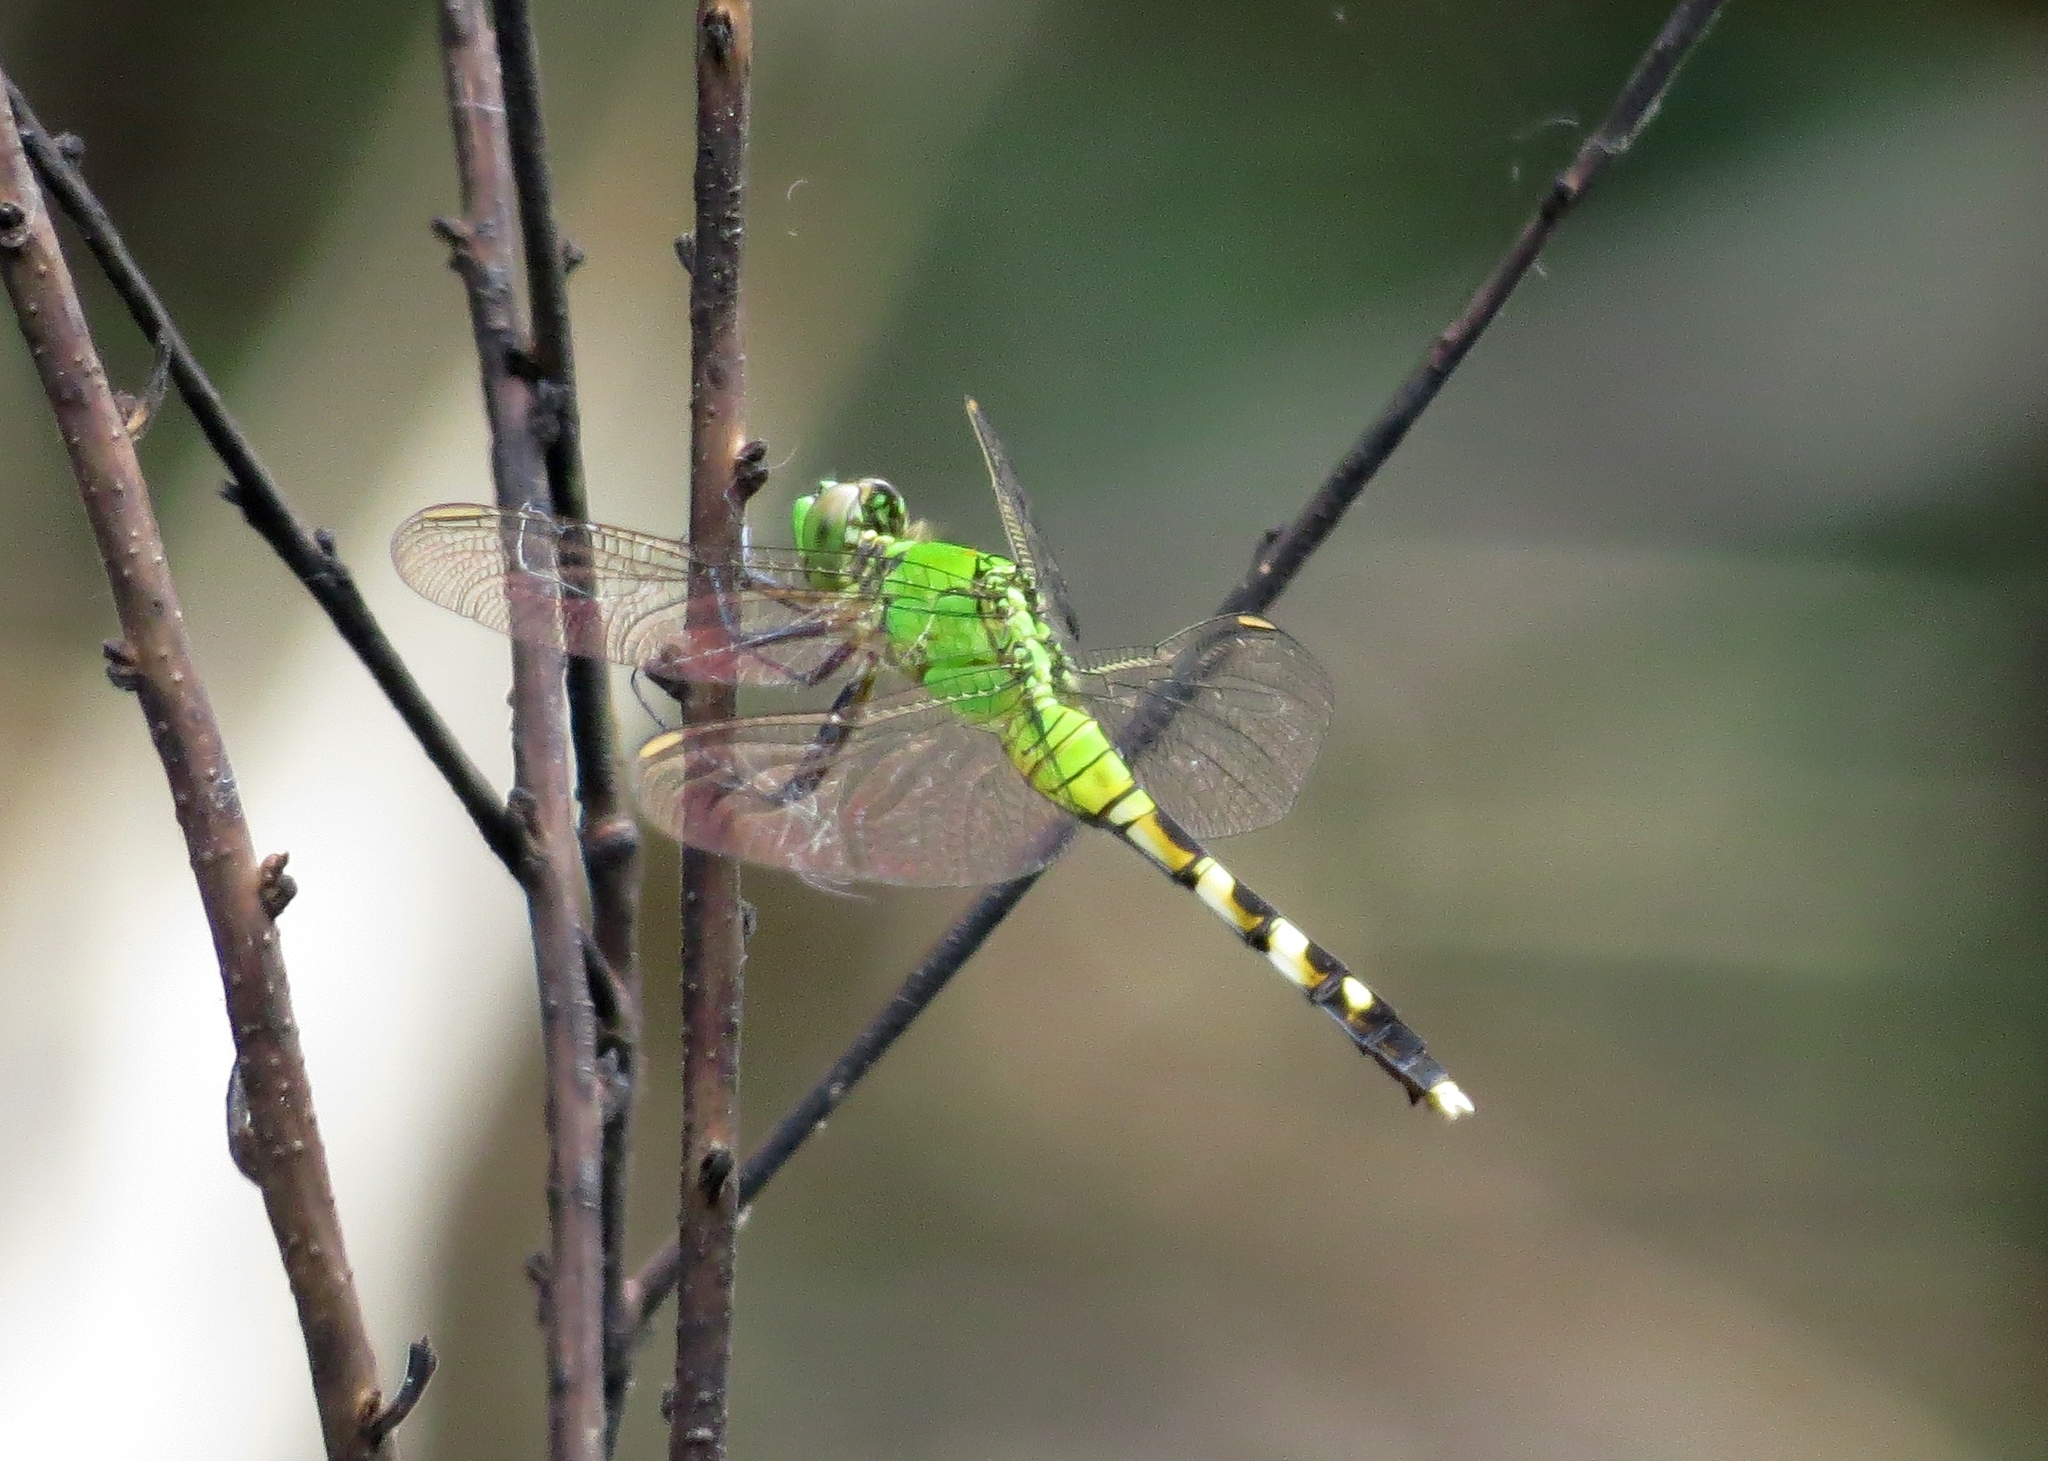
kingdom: Animalia
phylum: Arthropoda
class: Insecta
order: Odonata
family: Libellulidae
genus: Erythemis
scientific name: Erythemis simplicicollis
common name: Eastern pondhawk
